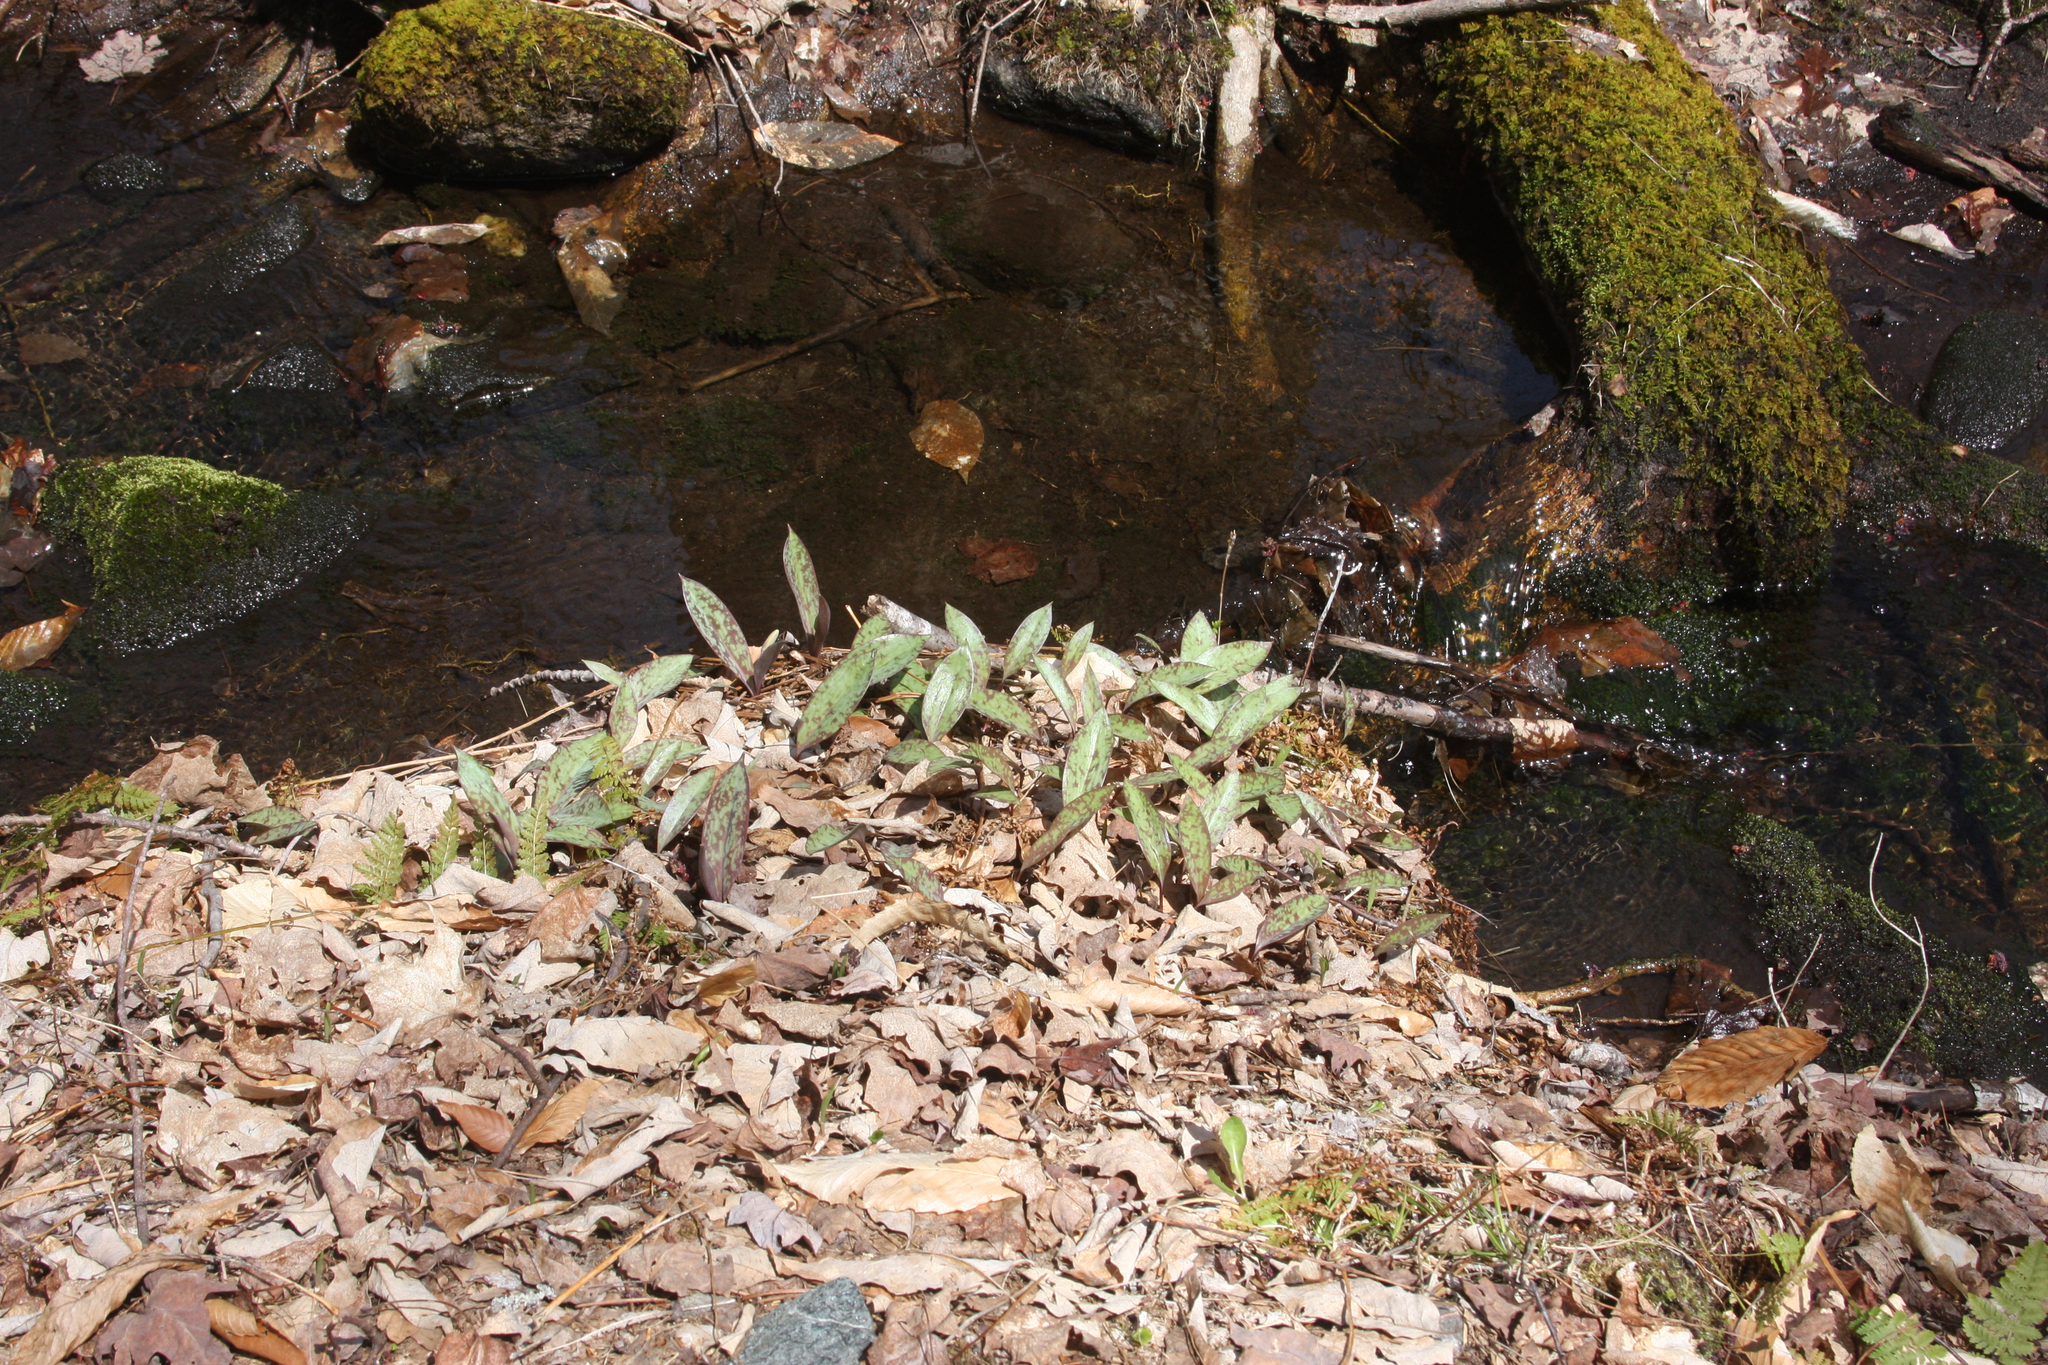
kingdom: Plantae
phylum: Tracheophyta
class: Liliopsida
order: Liliales
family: Liliaceae
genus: Erythronium
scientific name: Erythronium americanum
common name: Yellow adder's-tongue
